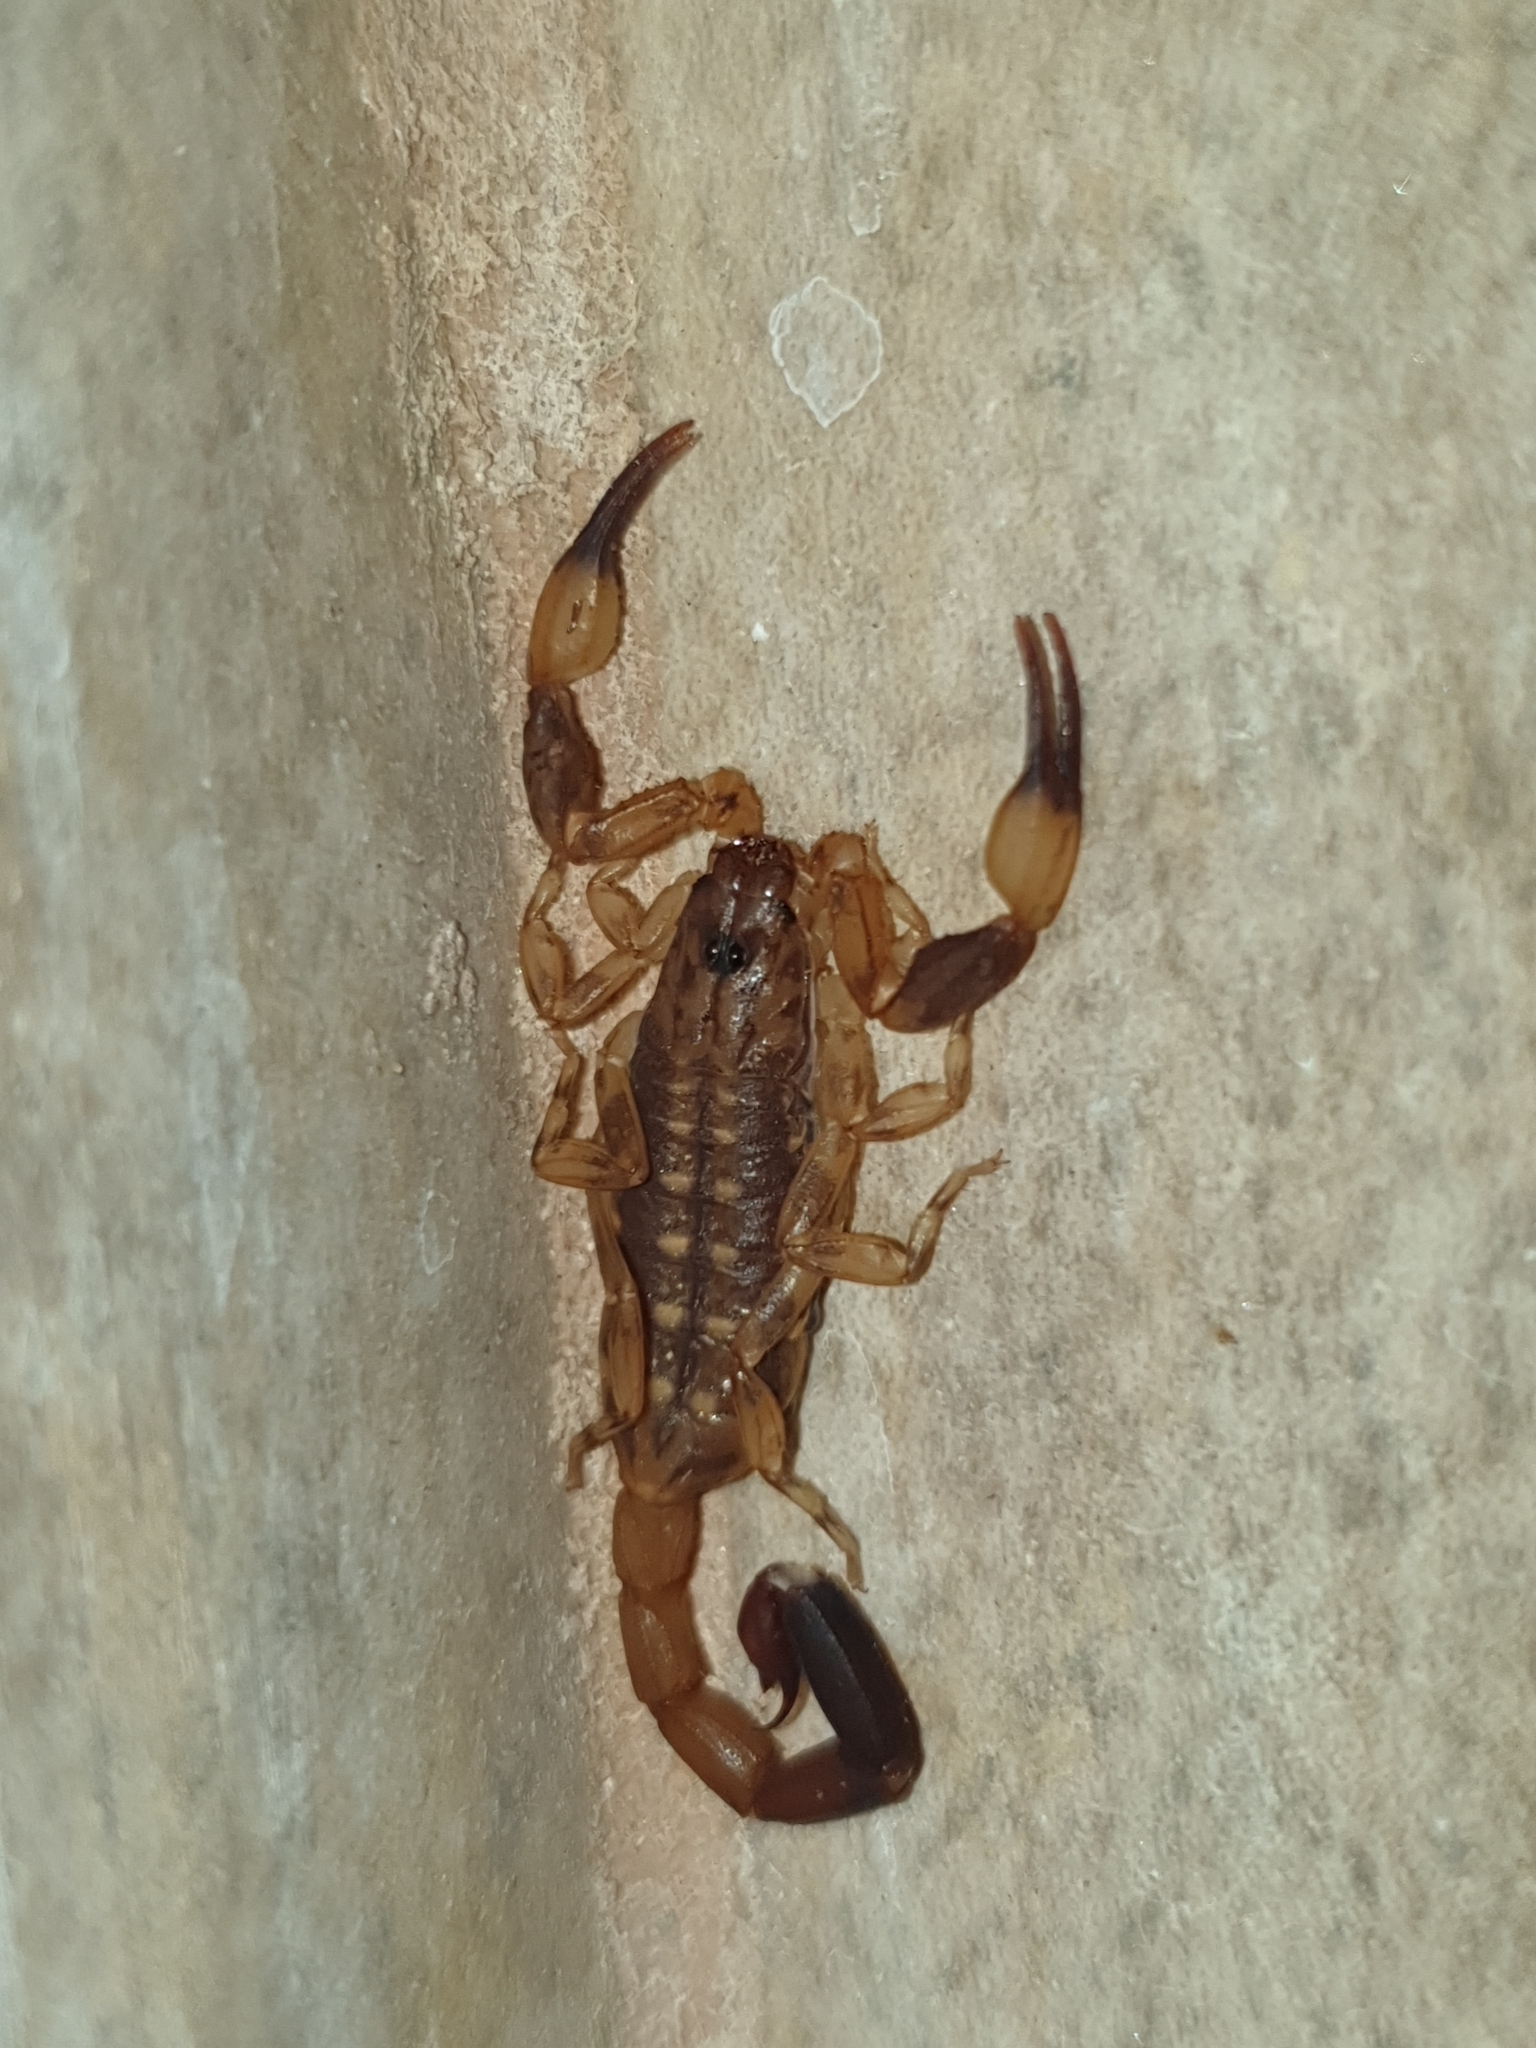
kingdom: Animalia
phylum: Arthropoda
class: Arachnida
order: Scorpiones
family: Buthidae
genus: Reddyanus
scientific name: Reddyanus loebli
